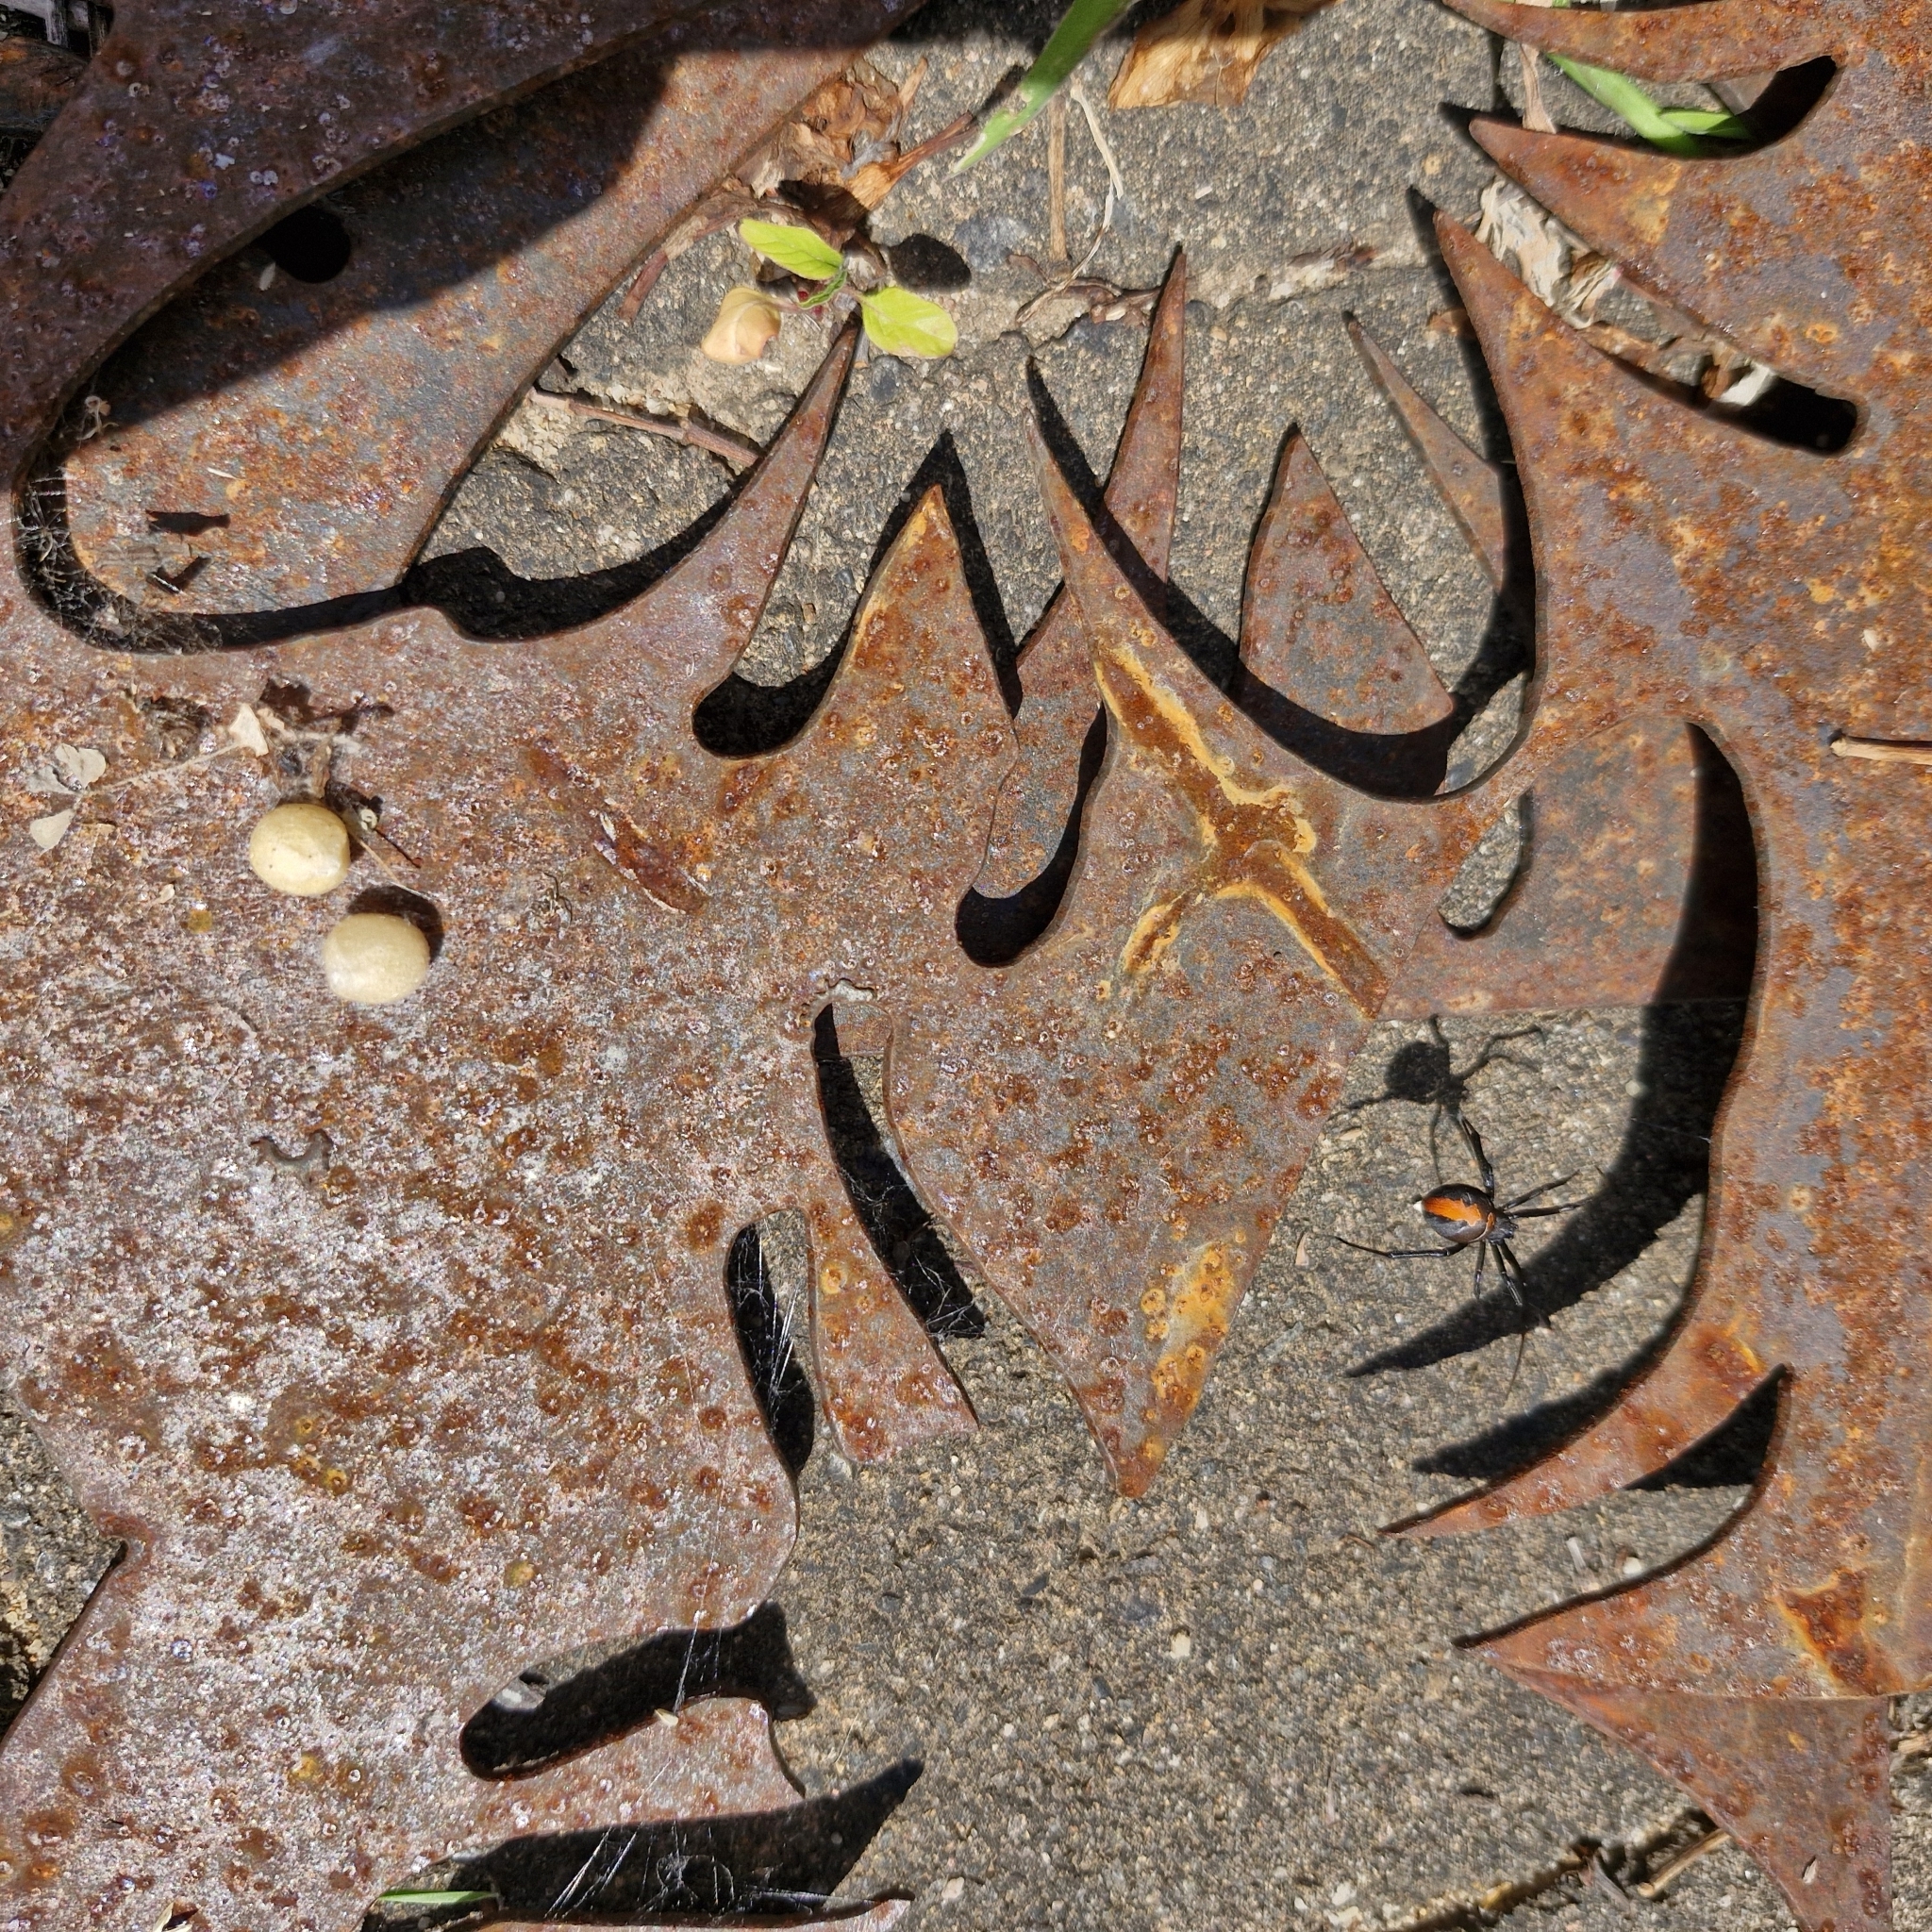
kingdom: Animalia
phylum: Arthropoda
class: Arachnida
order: Araneae
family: Theridiidae
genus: Latrodectus
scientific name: Latrodectus hasselti
